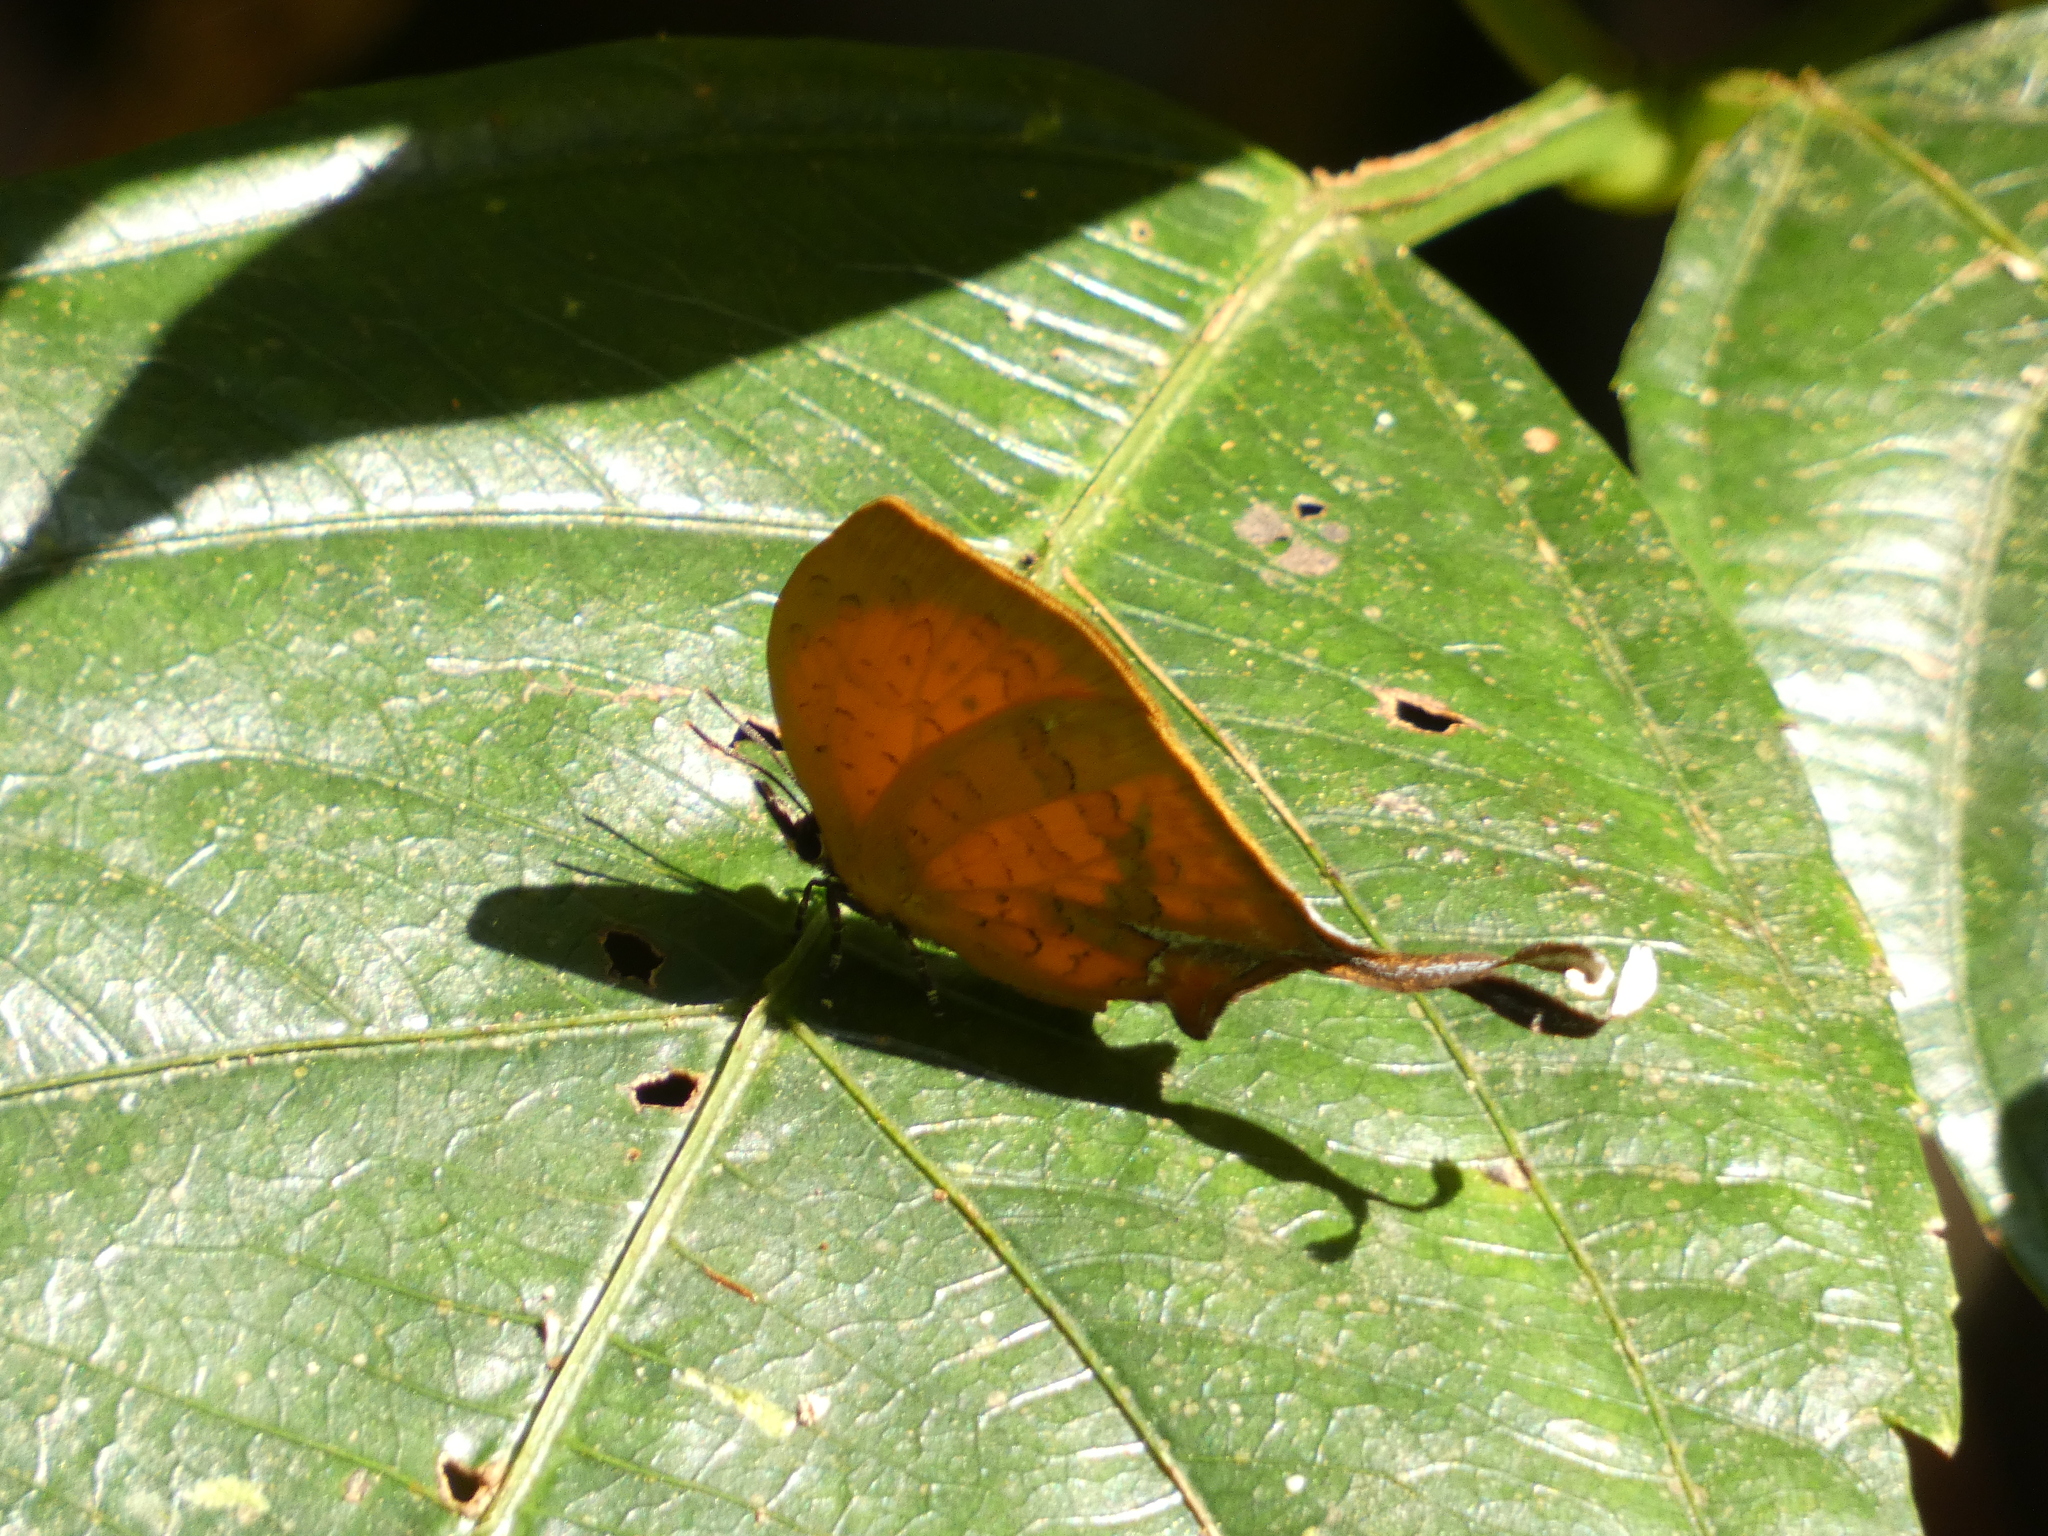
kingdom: Animalia
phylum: Arthropoda
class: Insecta
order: Lepidoptera
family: Lycaenidae
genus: Yasoda
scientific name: Yasoda tripunctata
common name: Branded yamfly
